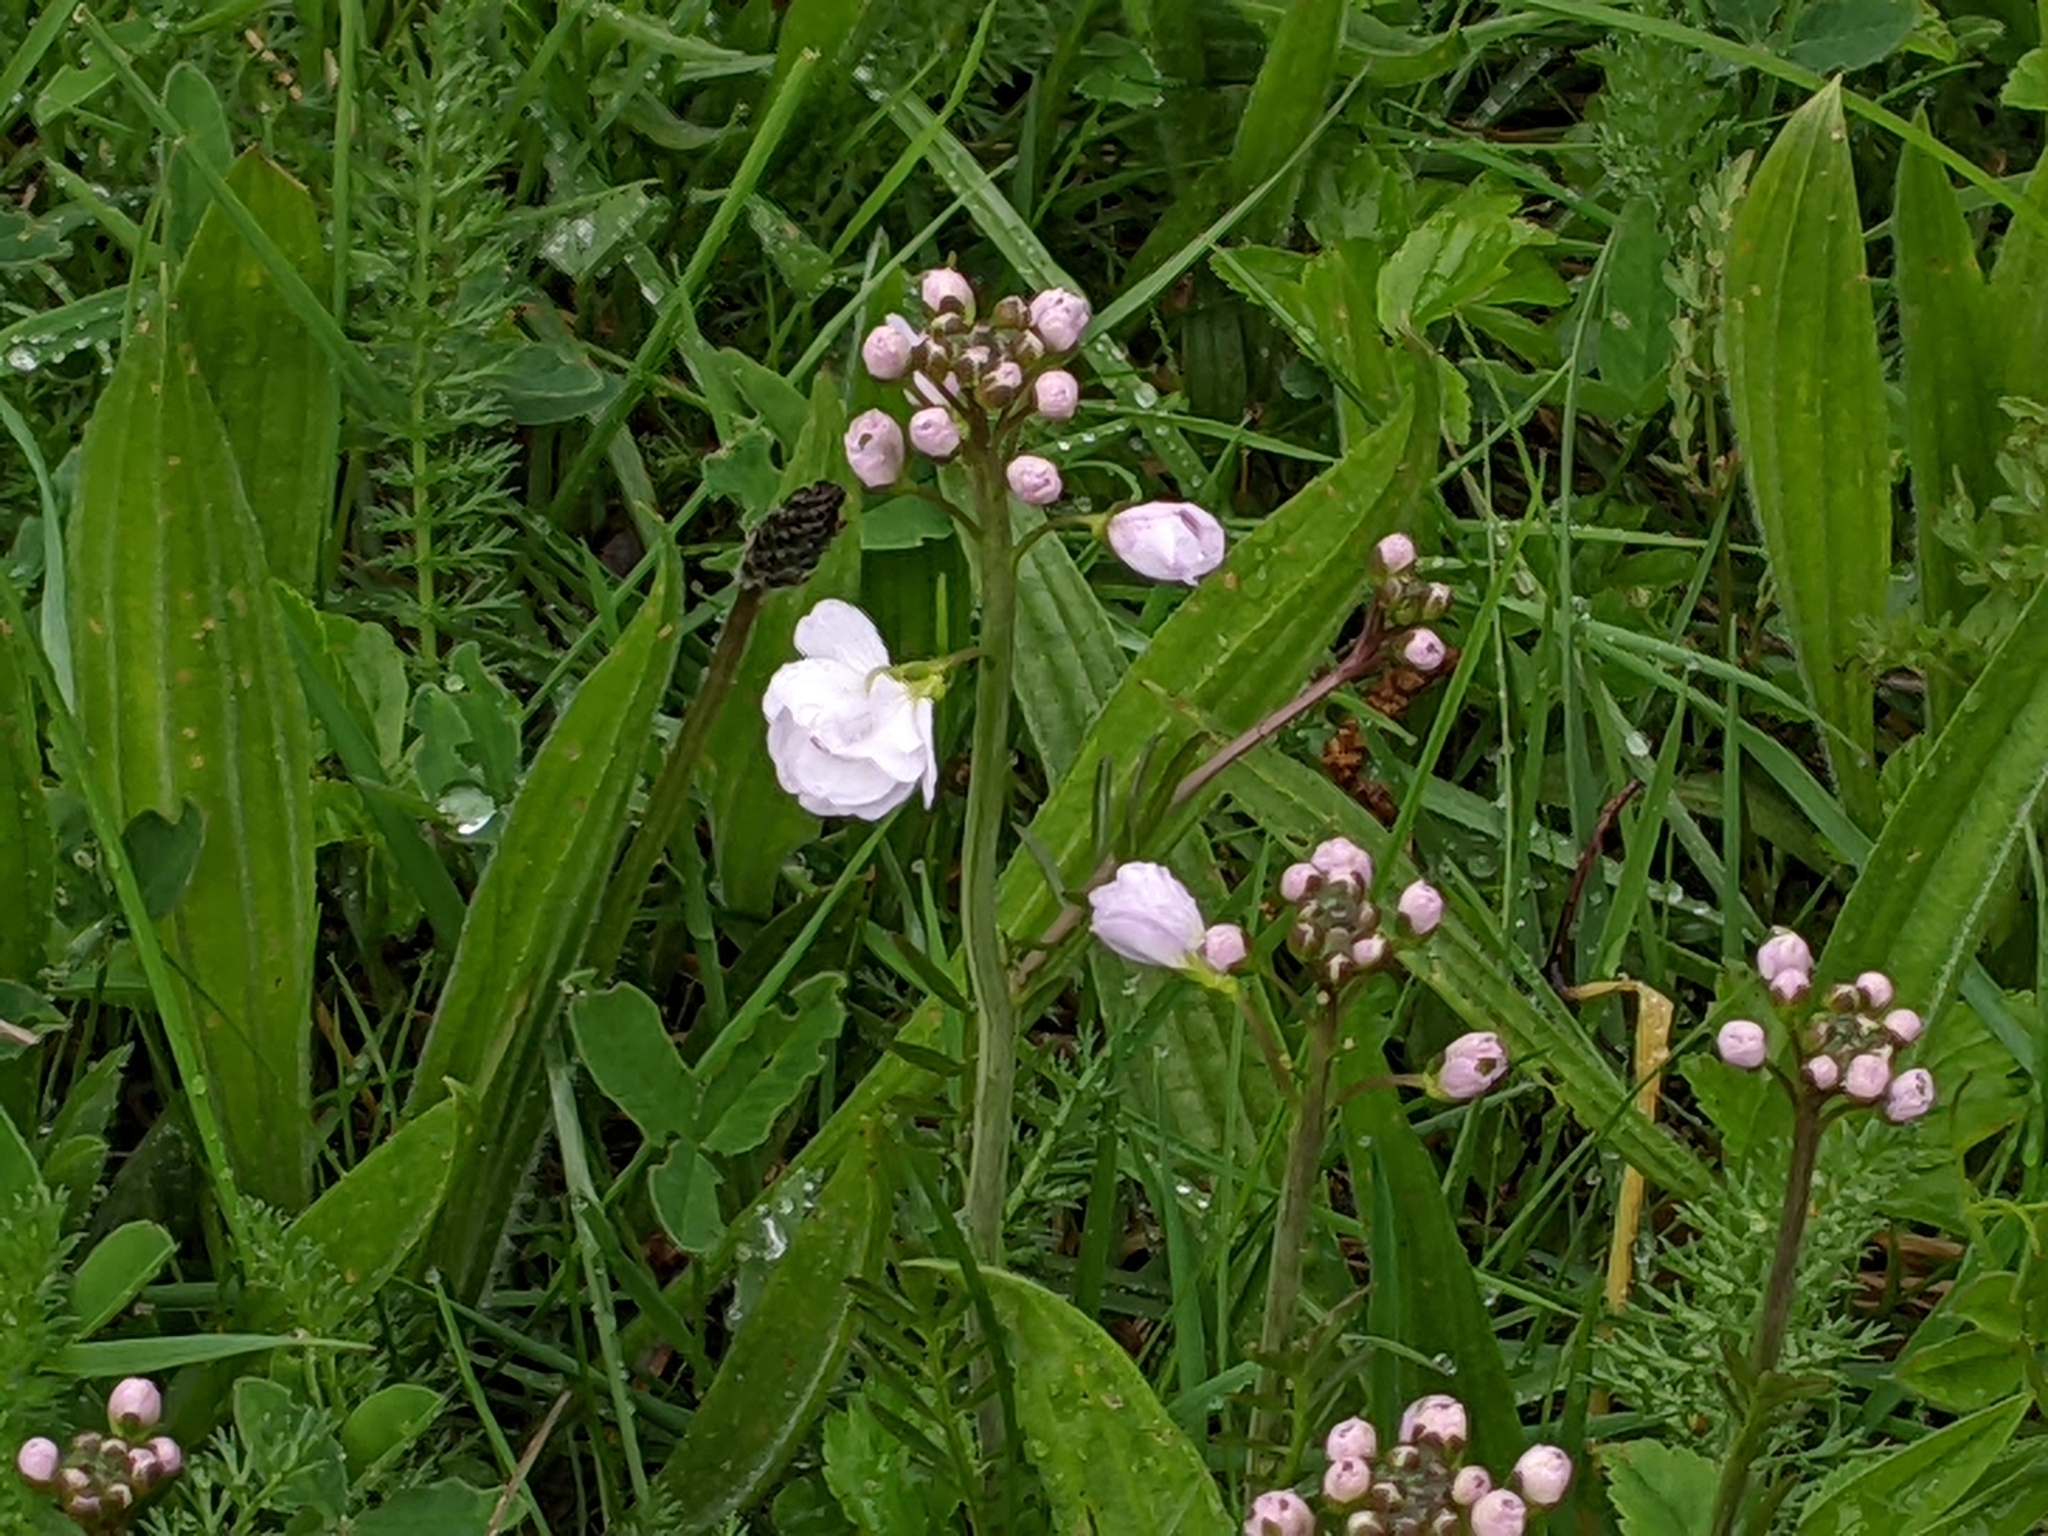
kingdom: Plantae
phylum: Tracheophyta
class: Magnoliopsida
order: Brassicales
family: Brassicaceae
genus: Cardamine
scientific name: Cardamine pratensis
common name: Cuckoo flower
